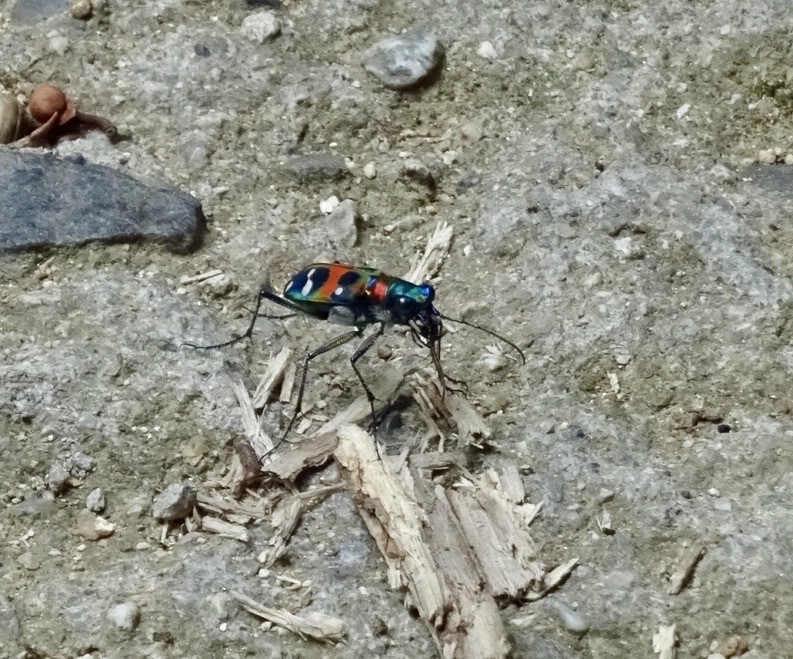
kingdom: Animalia
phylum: Arthropoda
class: Insecta
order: Coleoptera
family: Carabidae
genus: Cicindela
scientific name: Cicindela chinensis
